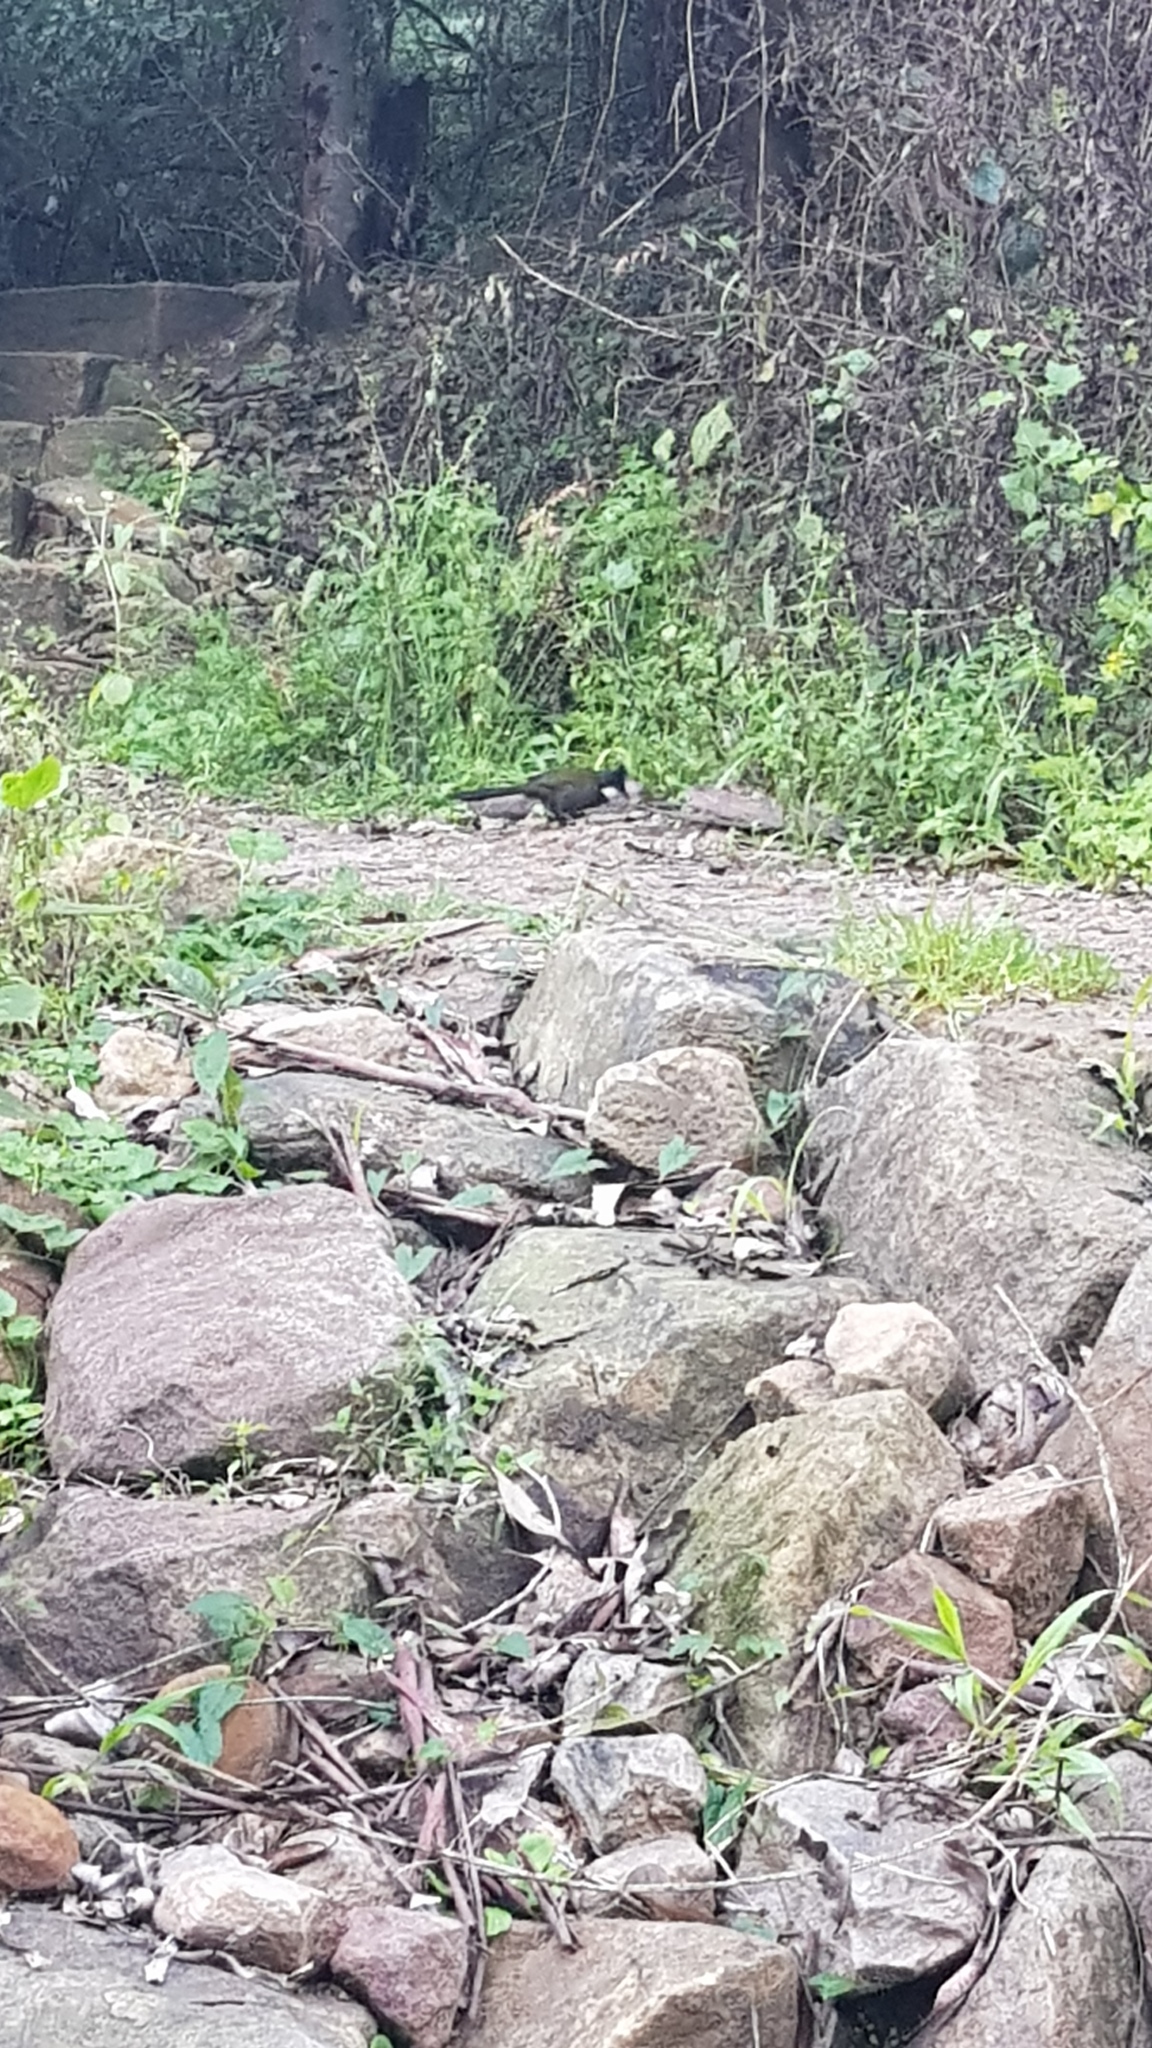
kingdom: Animalia
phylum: Chordata
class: Aves
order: Passeriformes
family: Psophodidae
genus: Psophodes
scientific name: Psophodes olivaceus
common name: Eastern whipbird
